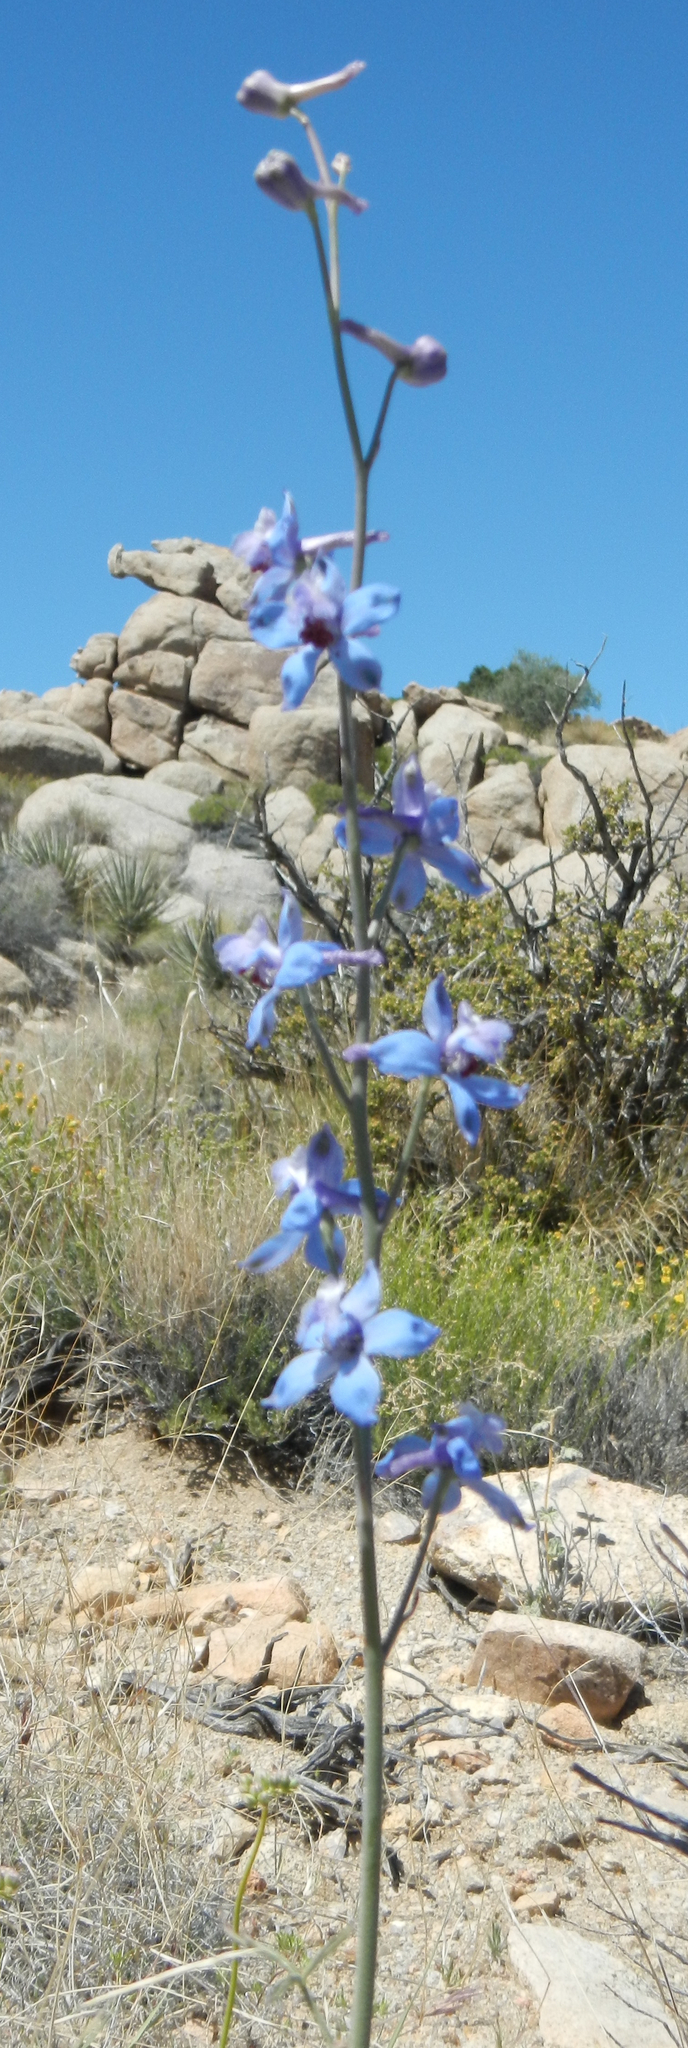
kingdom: Plantae
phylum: Tracheophyta
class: Magnoliopsida
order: Ranunculales
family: Ranunculaceae
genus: Delphinium
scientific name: Delphinium parishii
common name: Apache larkspur
